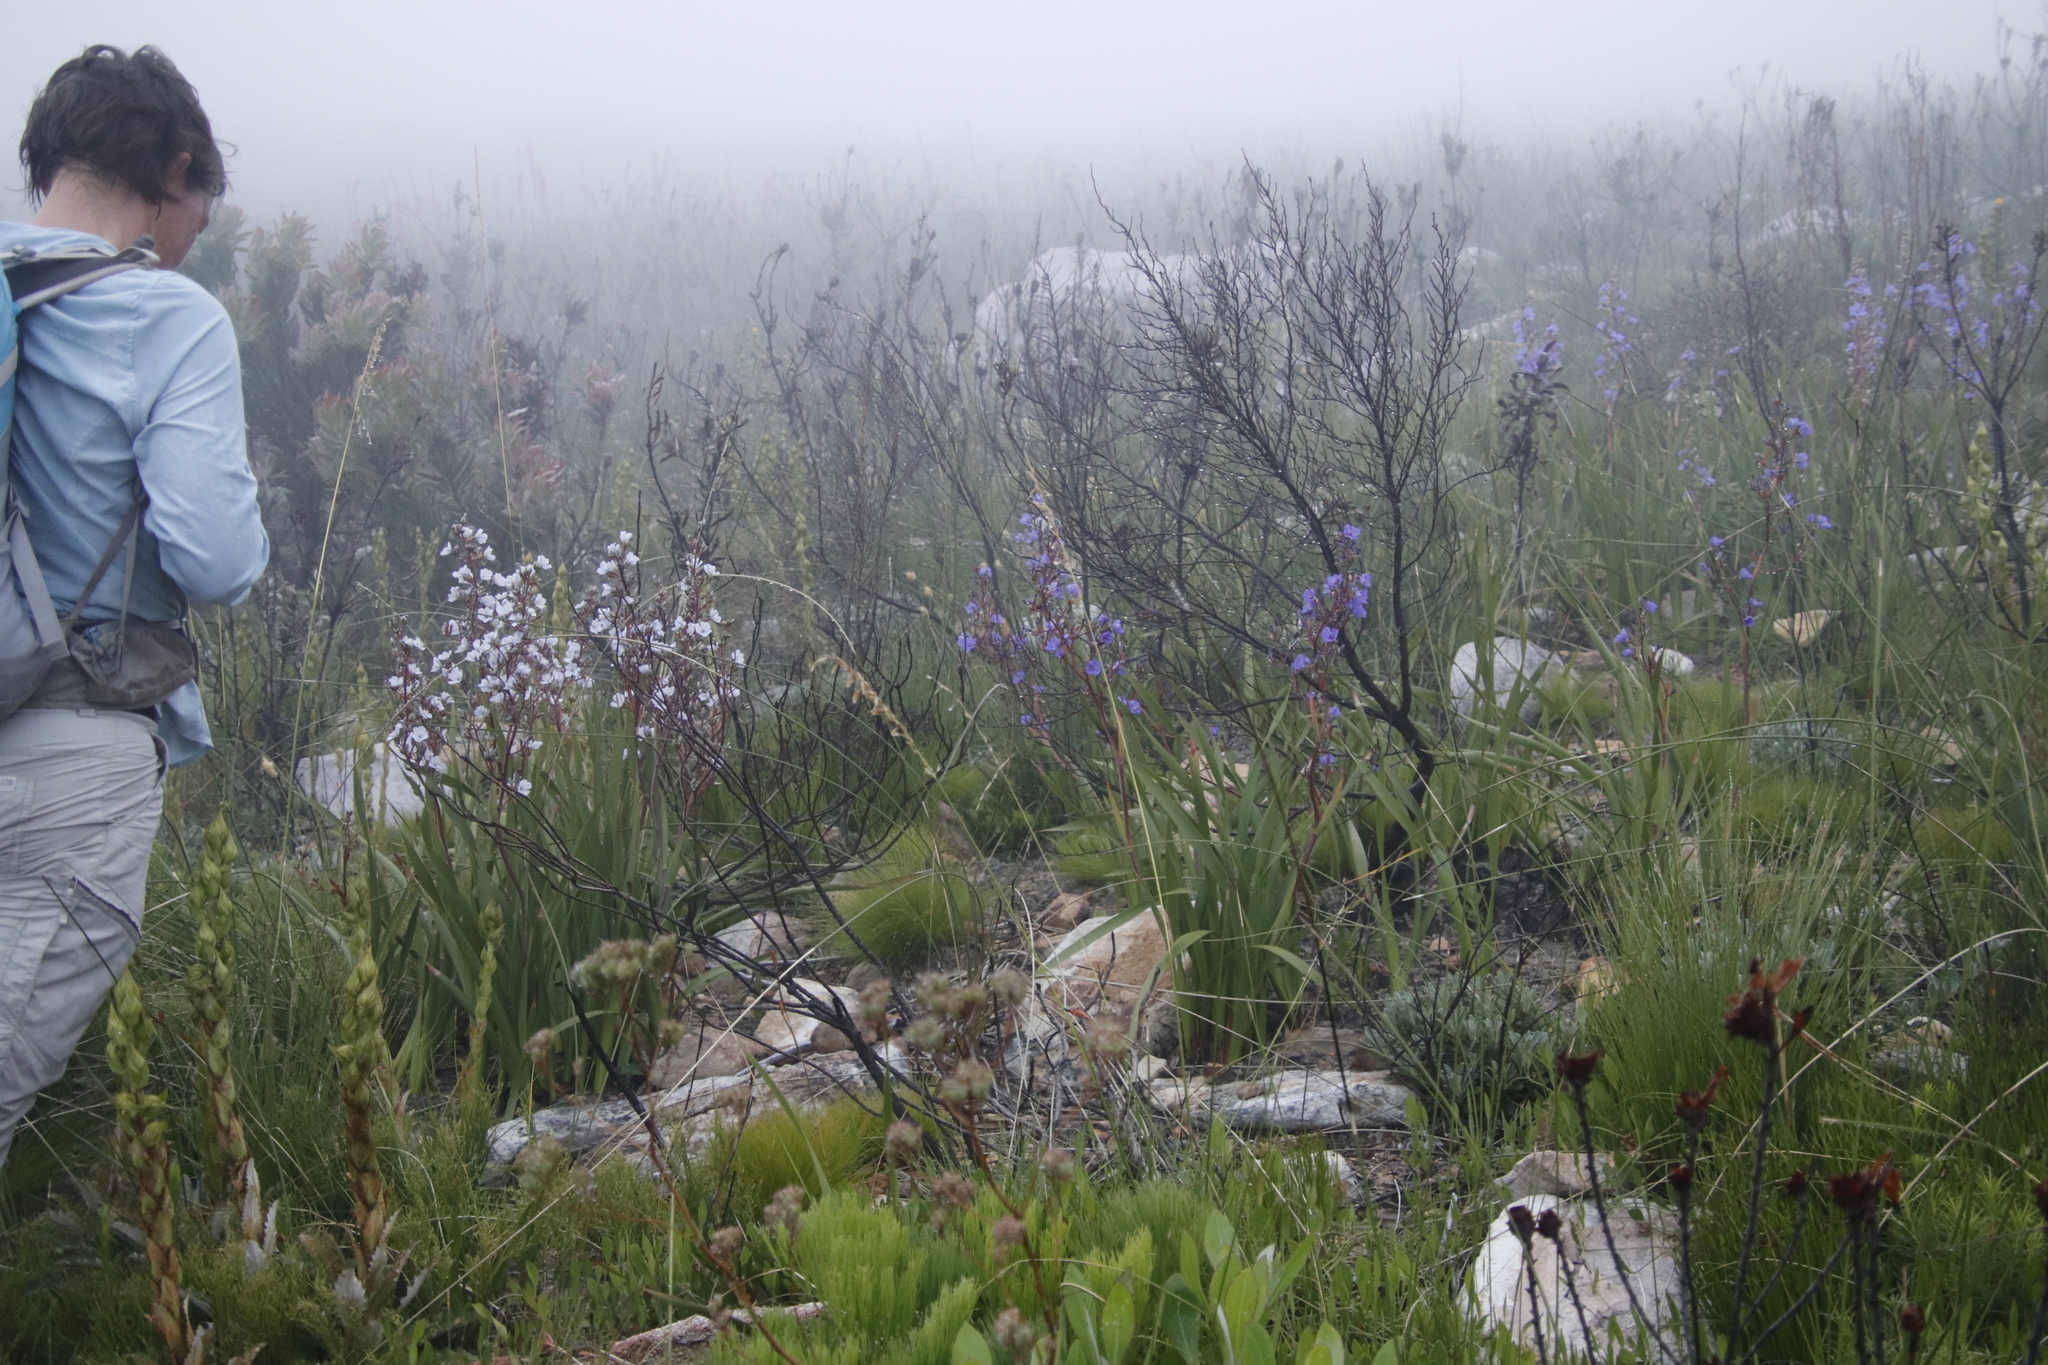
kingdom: Plantae
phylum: Tracheophyta
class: Liliopsida
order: Asparagales
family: Iridaceae
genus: Aristea
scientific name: Aristea bakeri
